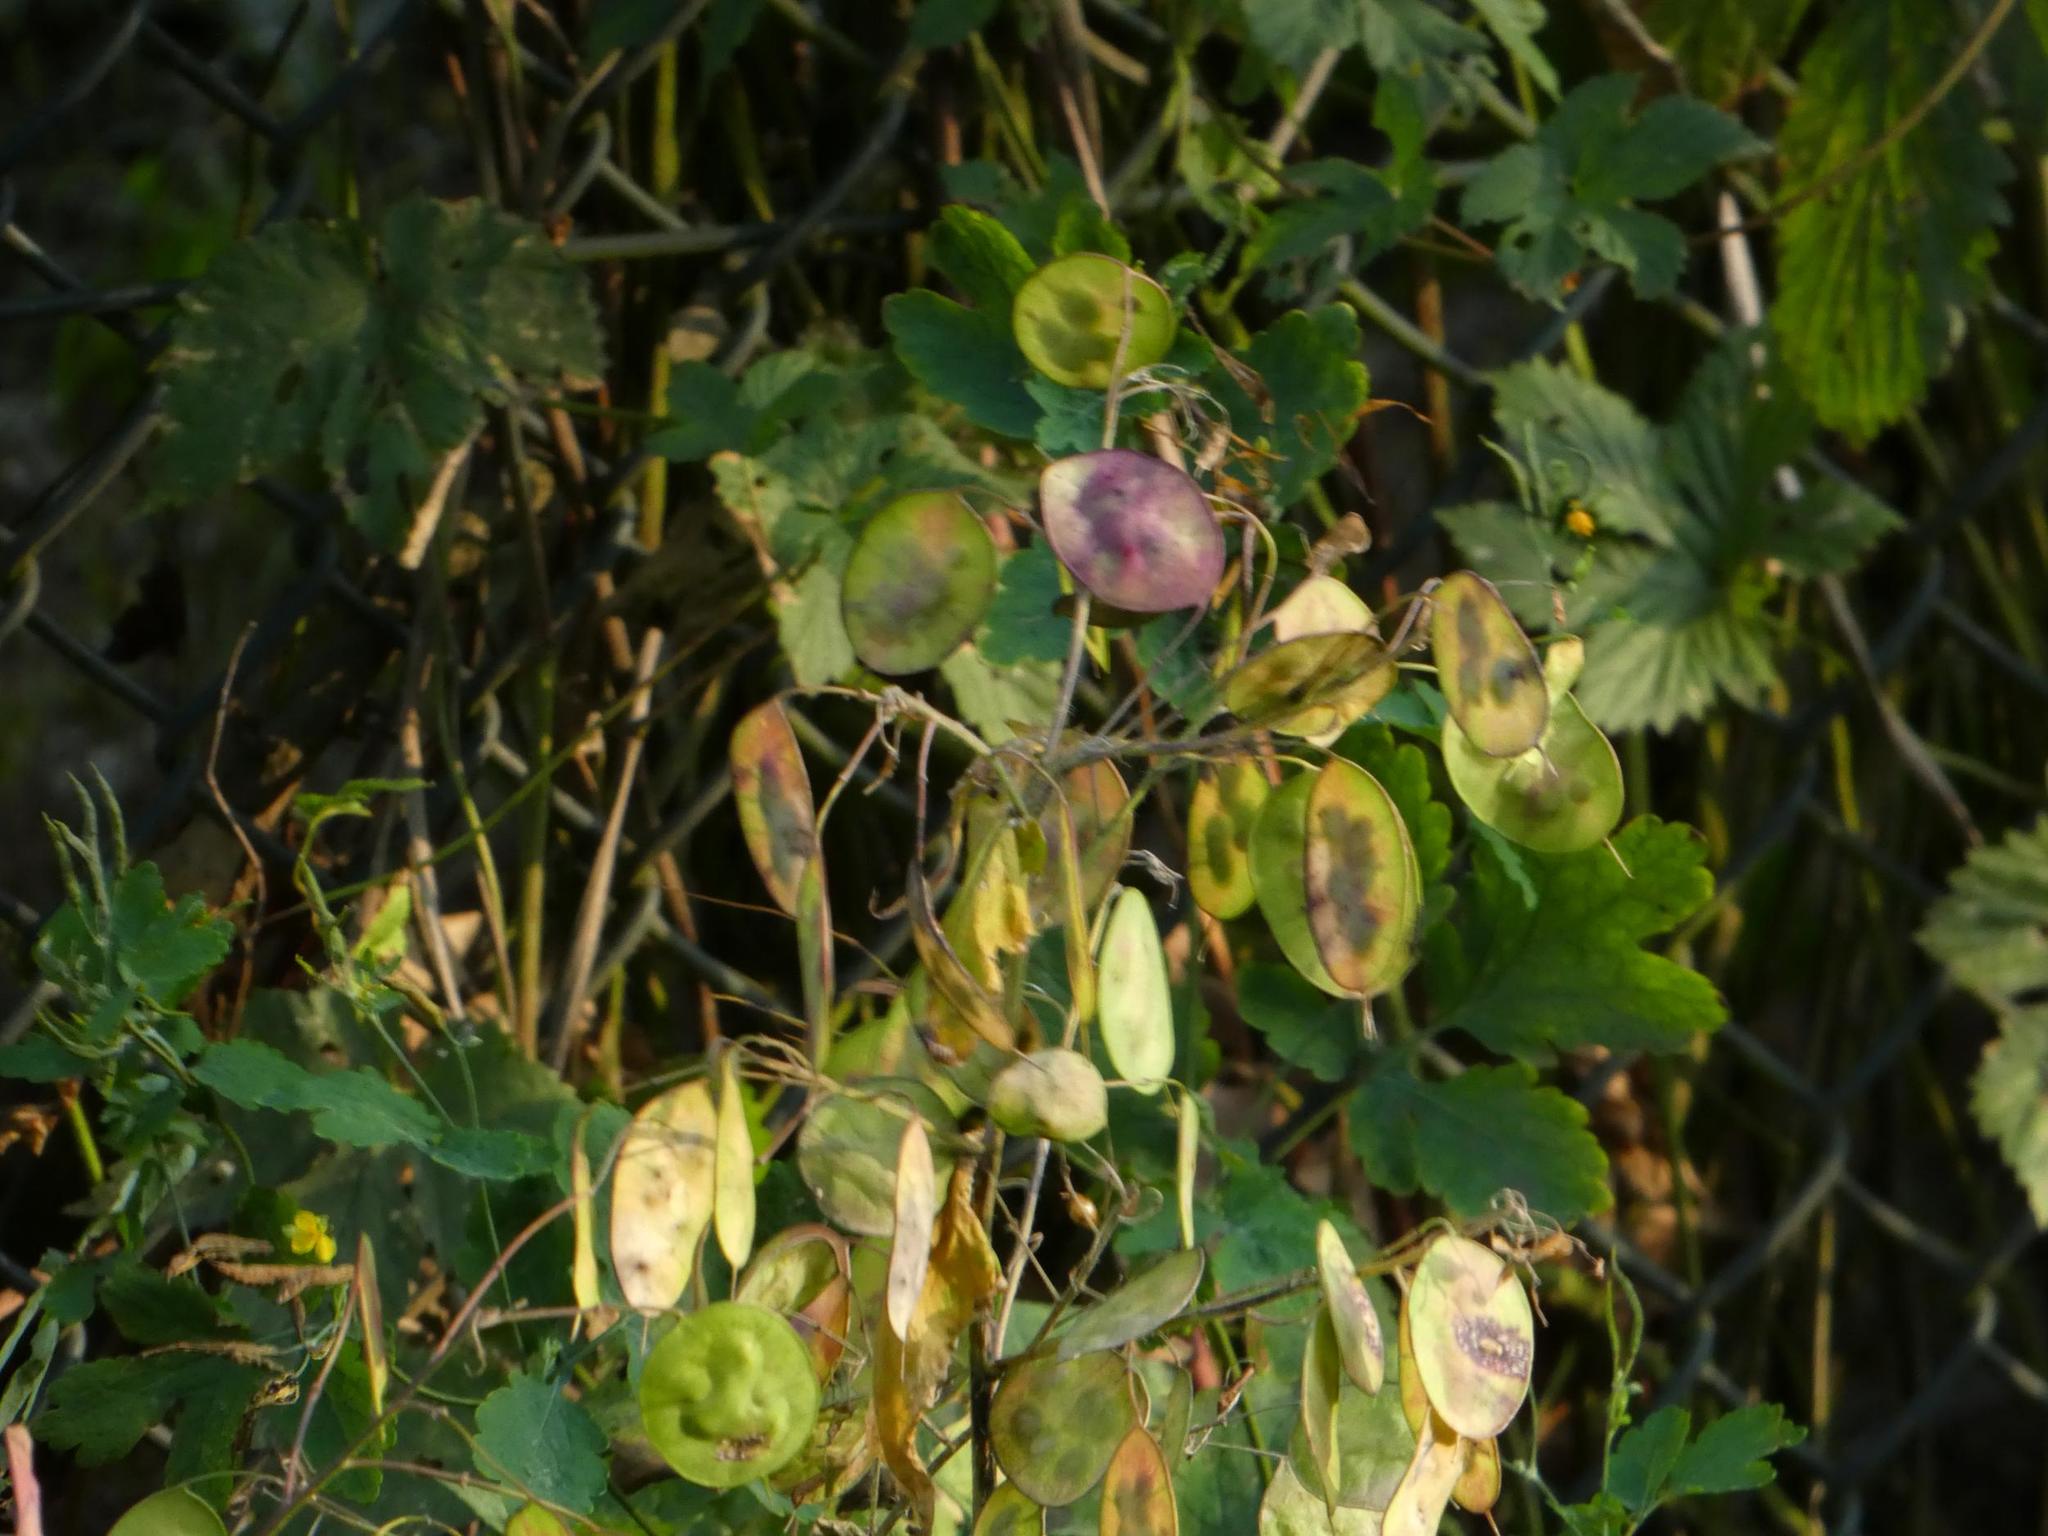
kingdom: Plantae
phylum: Tracheophyta
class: Magnoliopsida
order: Brassicales
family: Brassicaceae
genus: Lunaria
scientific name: Lunaria annua
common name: Honesty
